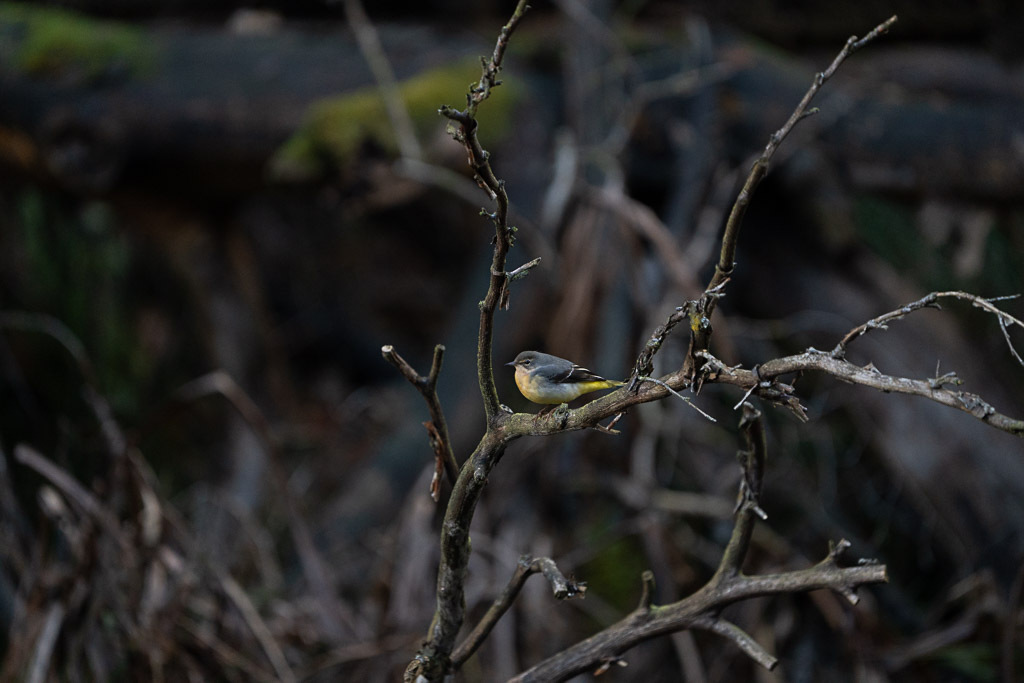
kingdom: Animalia
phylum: Chordata
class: Aves
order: Passeriformes
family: Motacillidae
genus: Motacilla
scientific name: Motacilla cinerea
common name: Grey wagtail
